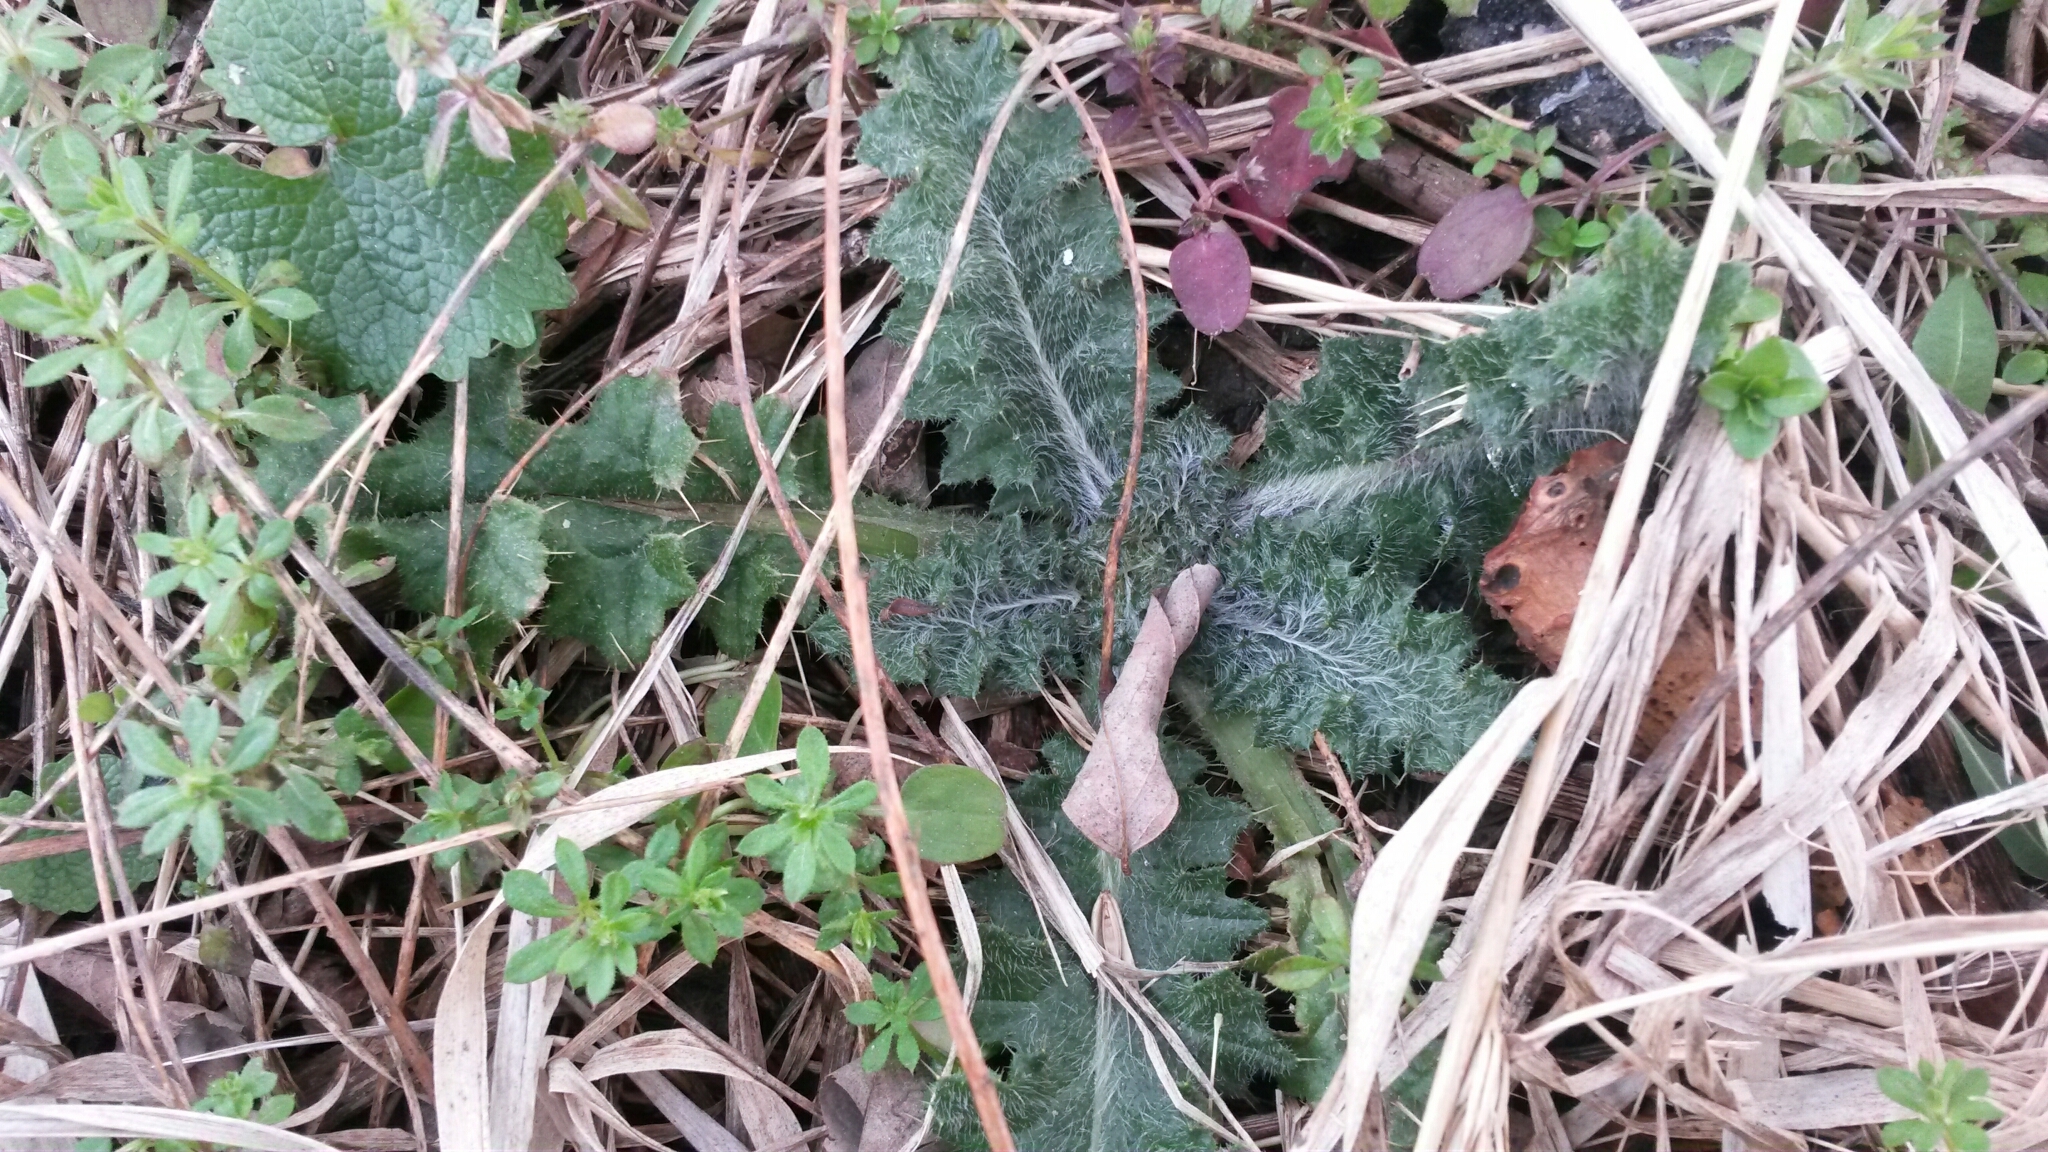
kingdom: Plantae
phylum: Tracheophyta
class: Magnoliopsida
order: Asterales
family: Asteraceae
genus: Cirsium
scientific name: Cirsium vulgare
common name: Bull thistle
